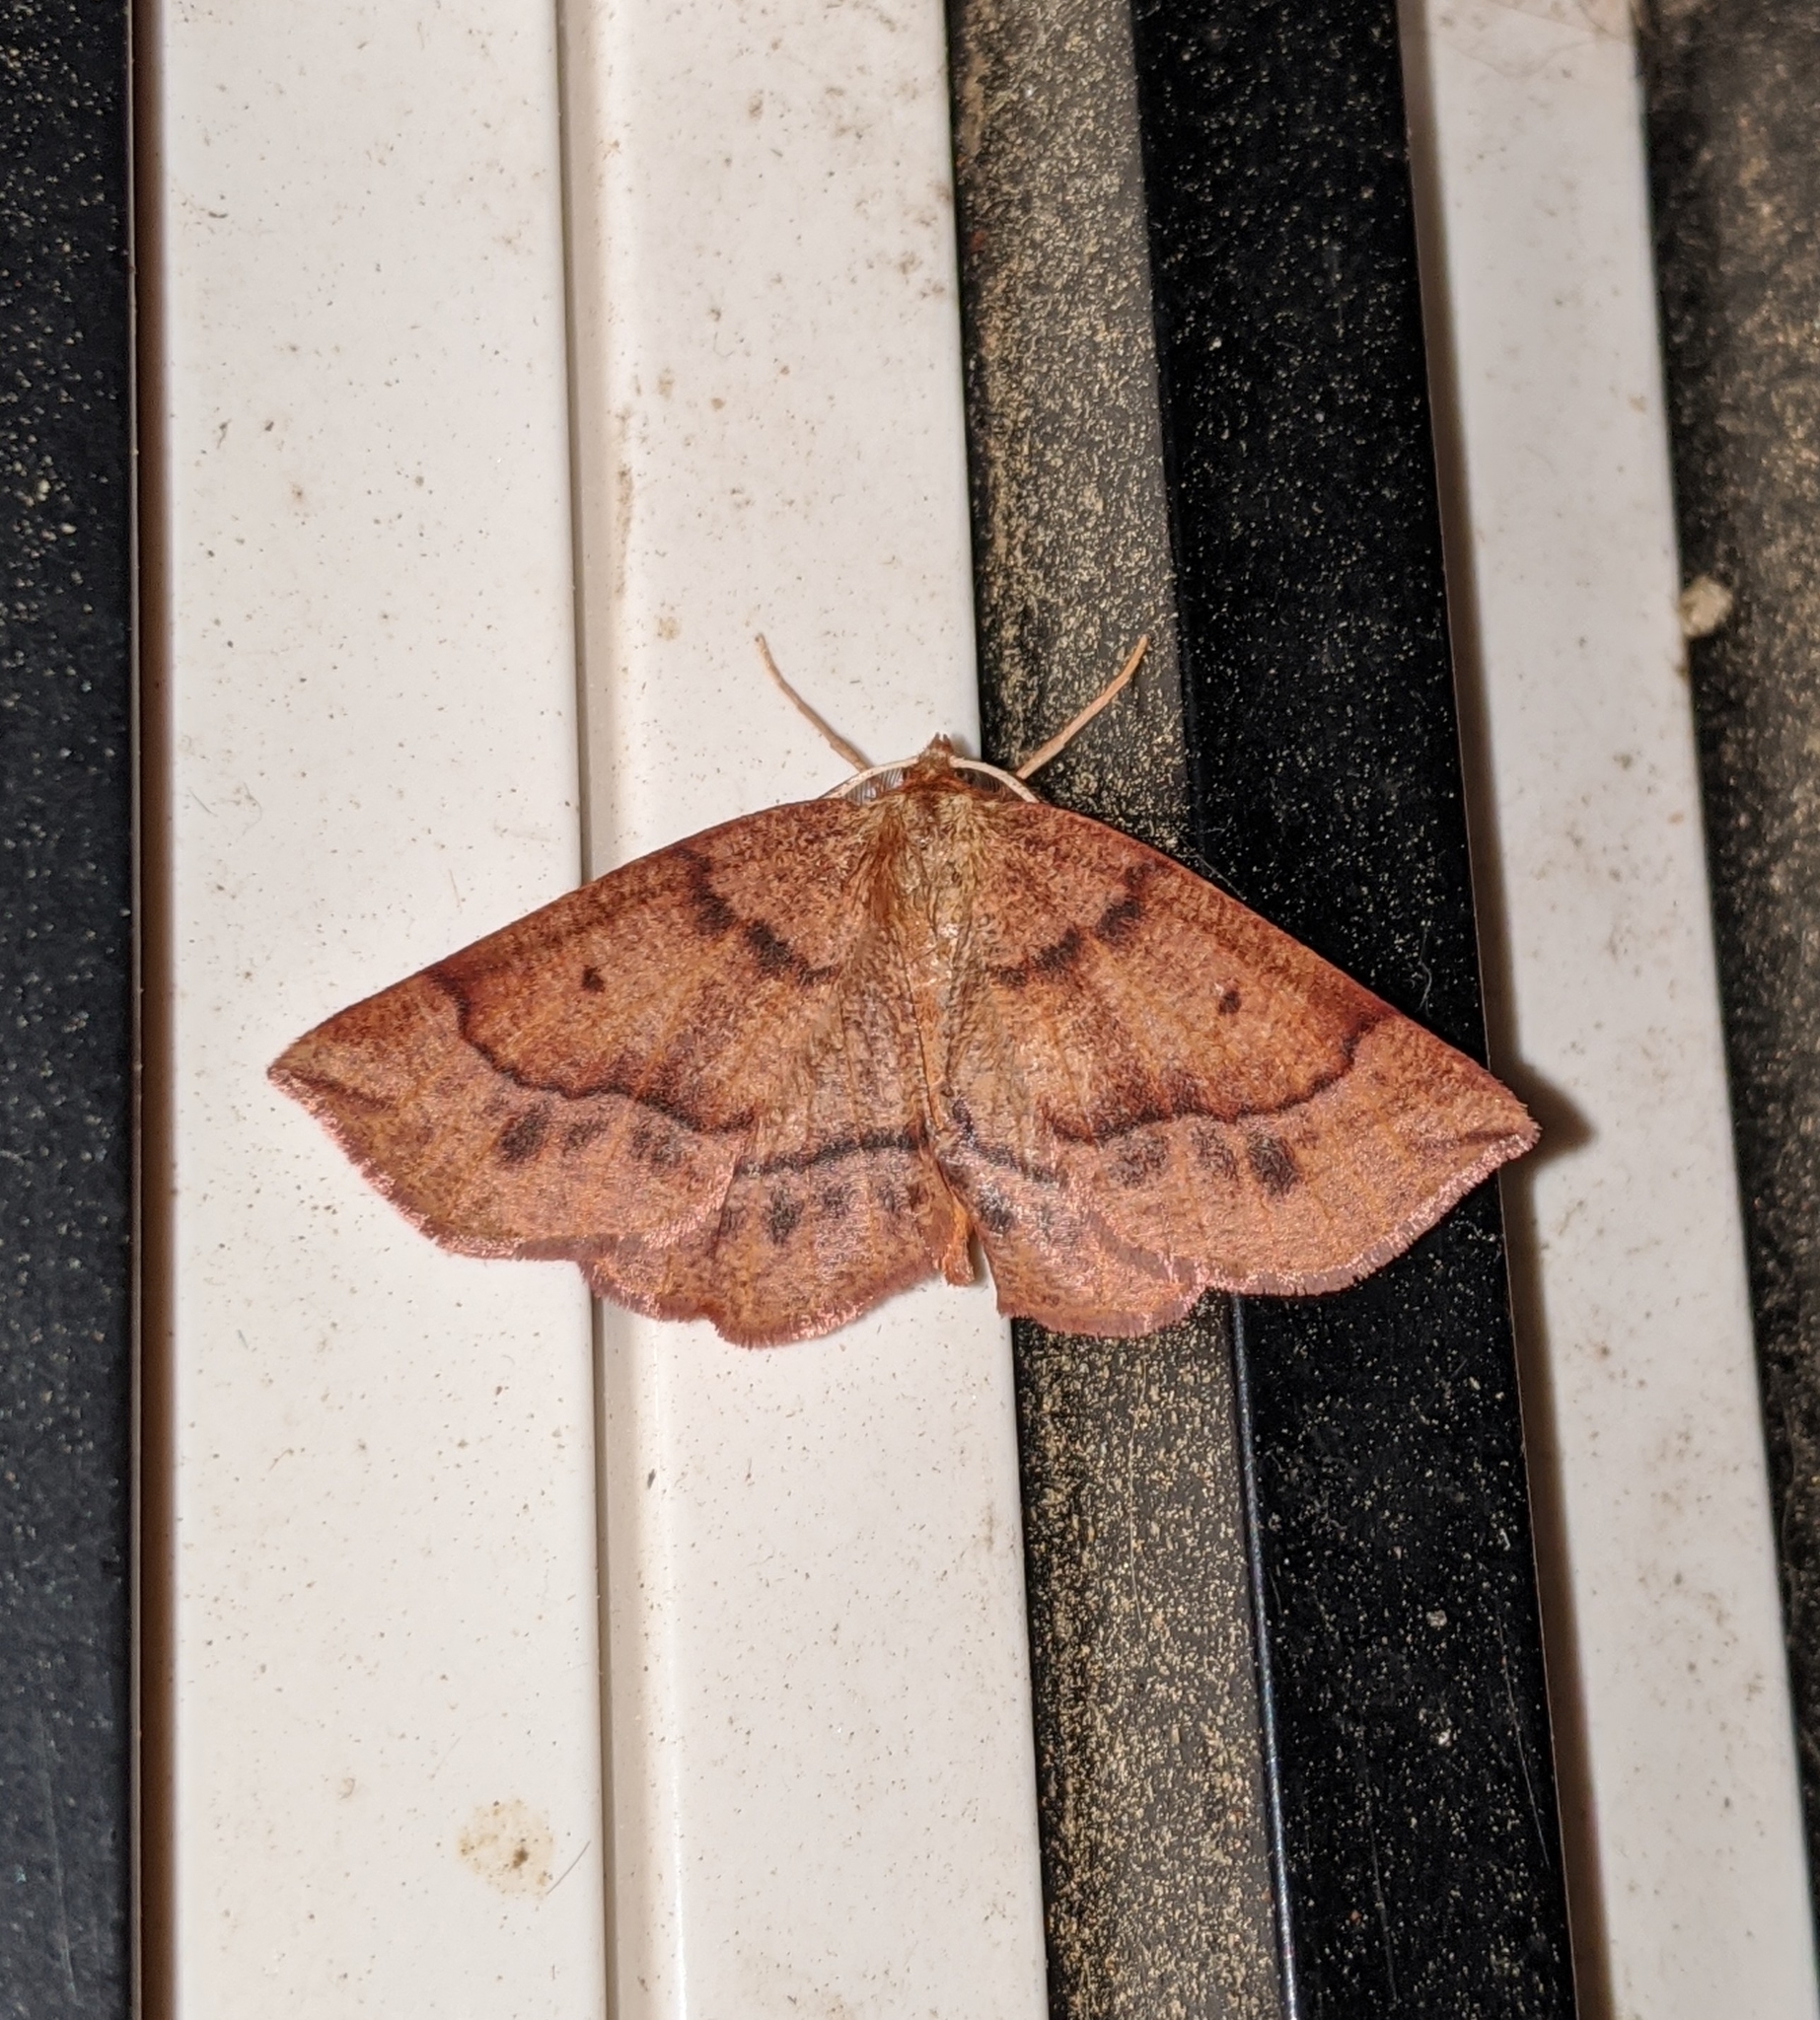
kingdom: Animalia
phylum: Arthropoda
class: Insecta
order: Lepidoptera
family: Geometridae
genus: Metarranthis
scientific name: Metarranthis duaria
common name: Ruddy metarranthis moth
